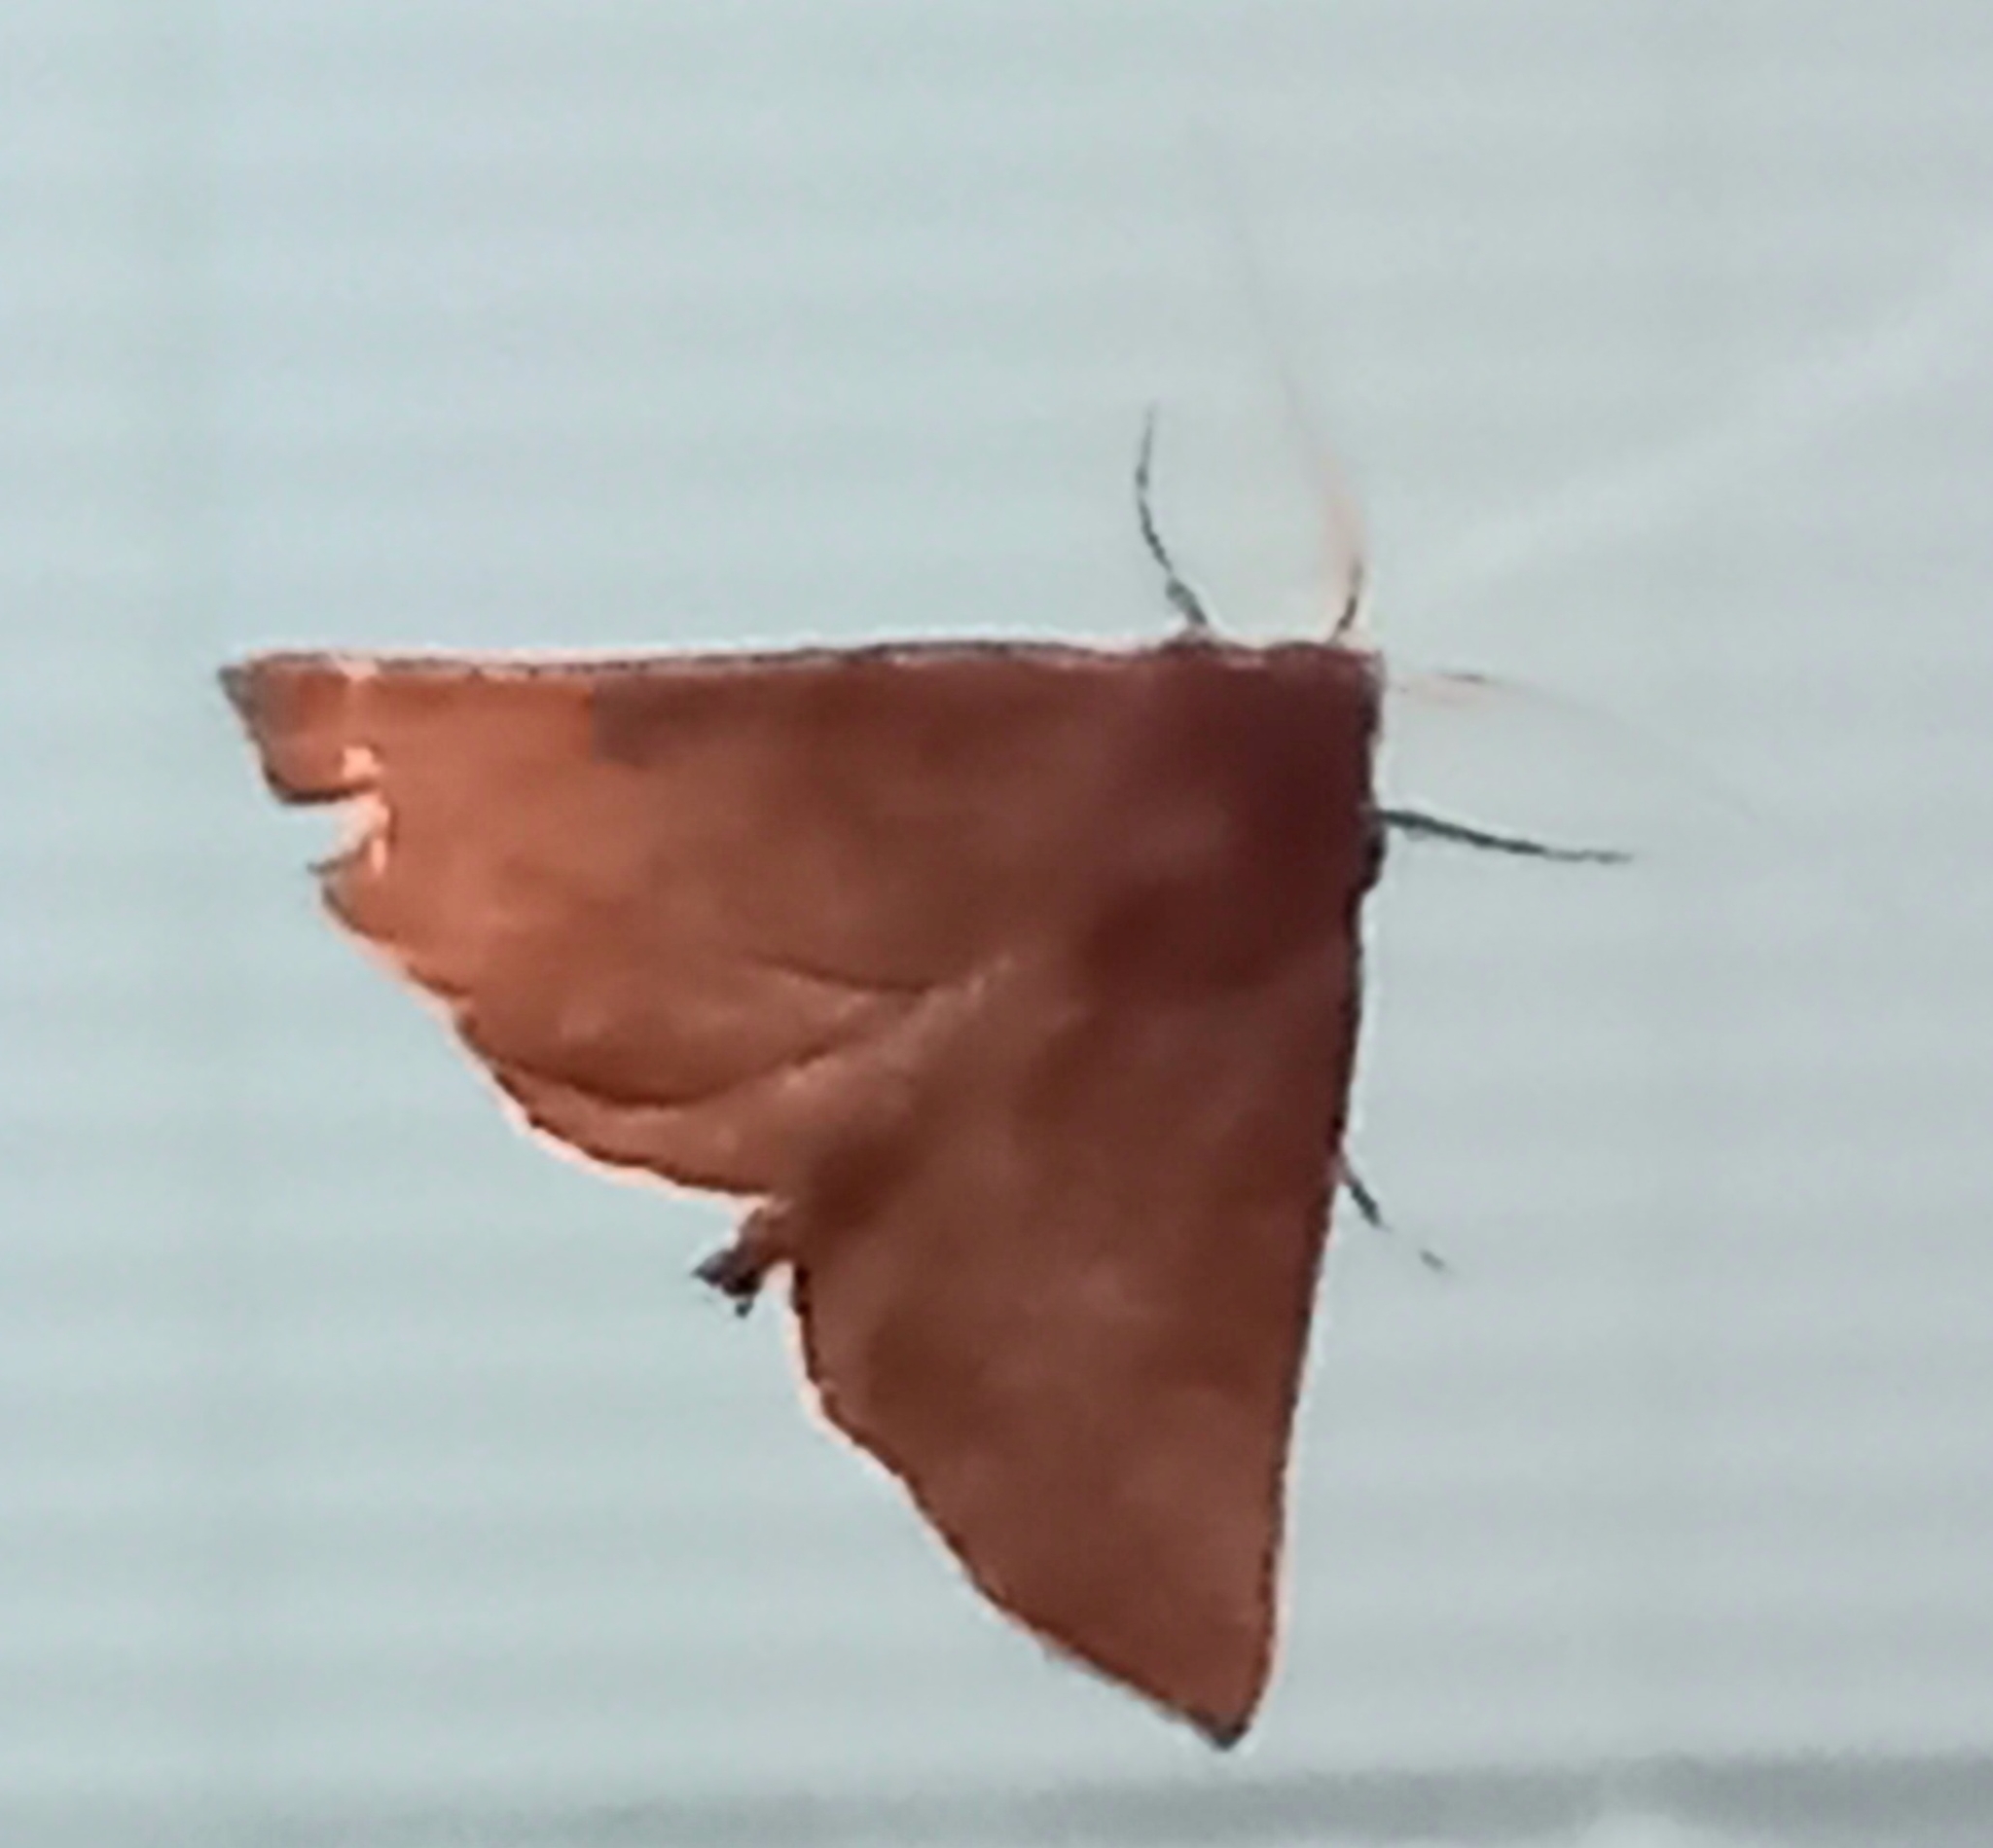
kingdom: Animalia
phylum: Arthropoda
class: Insecta
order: Lepidoptera
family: Geometridae
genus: Derrioides
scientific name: Derrioides villaria
